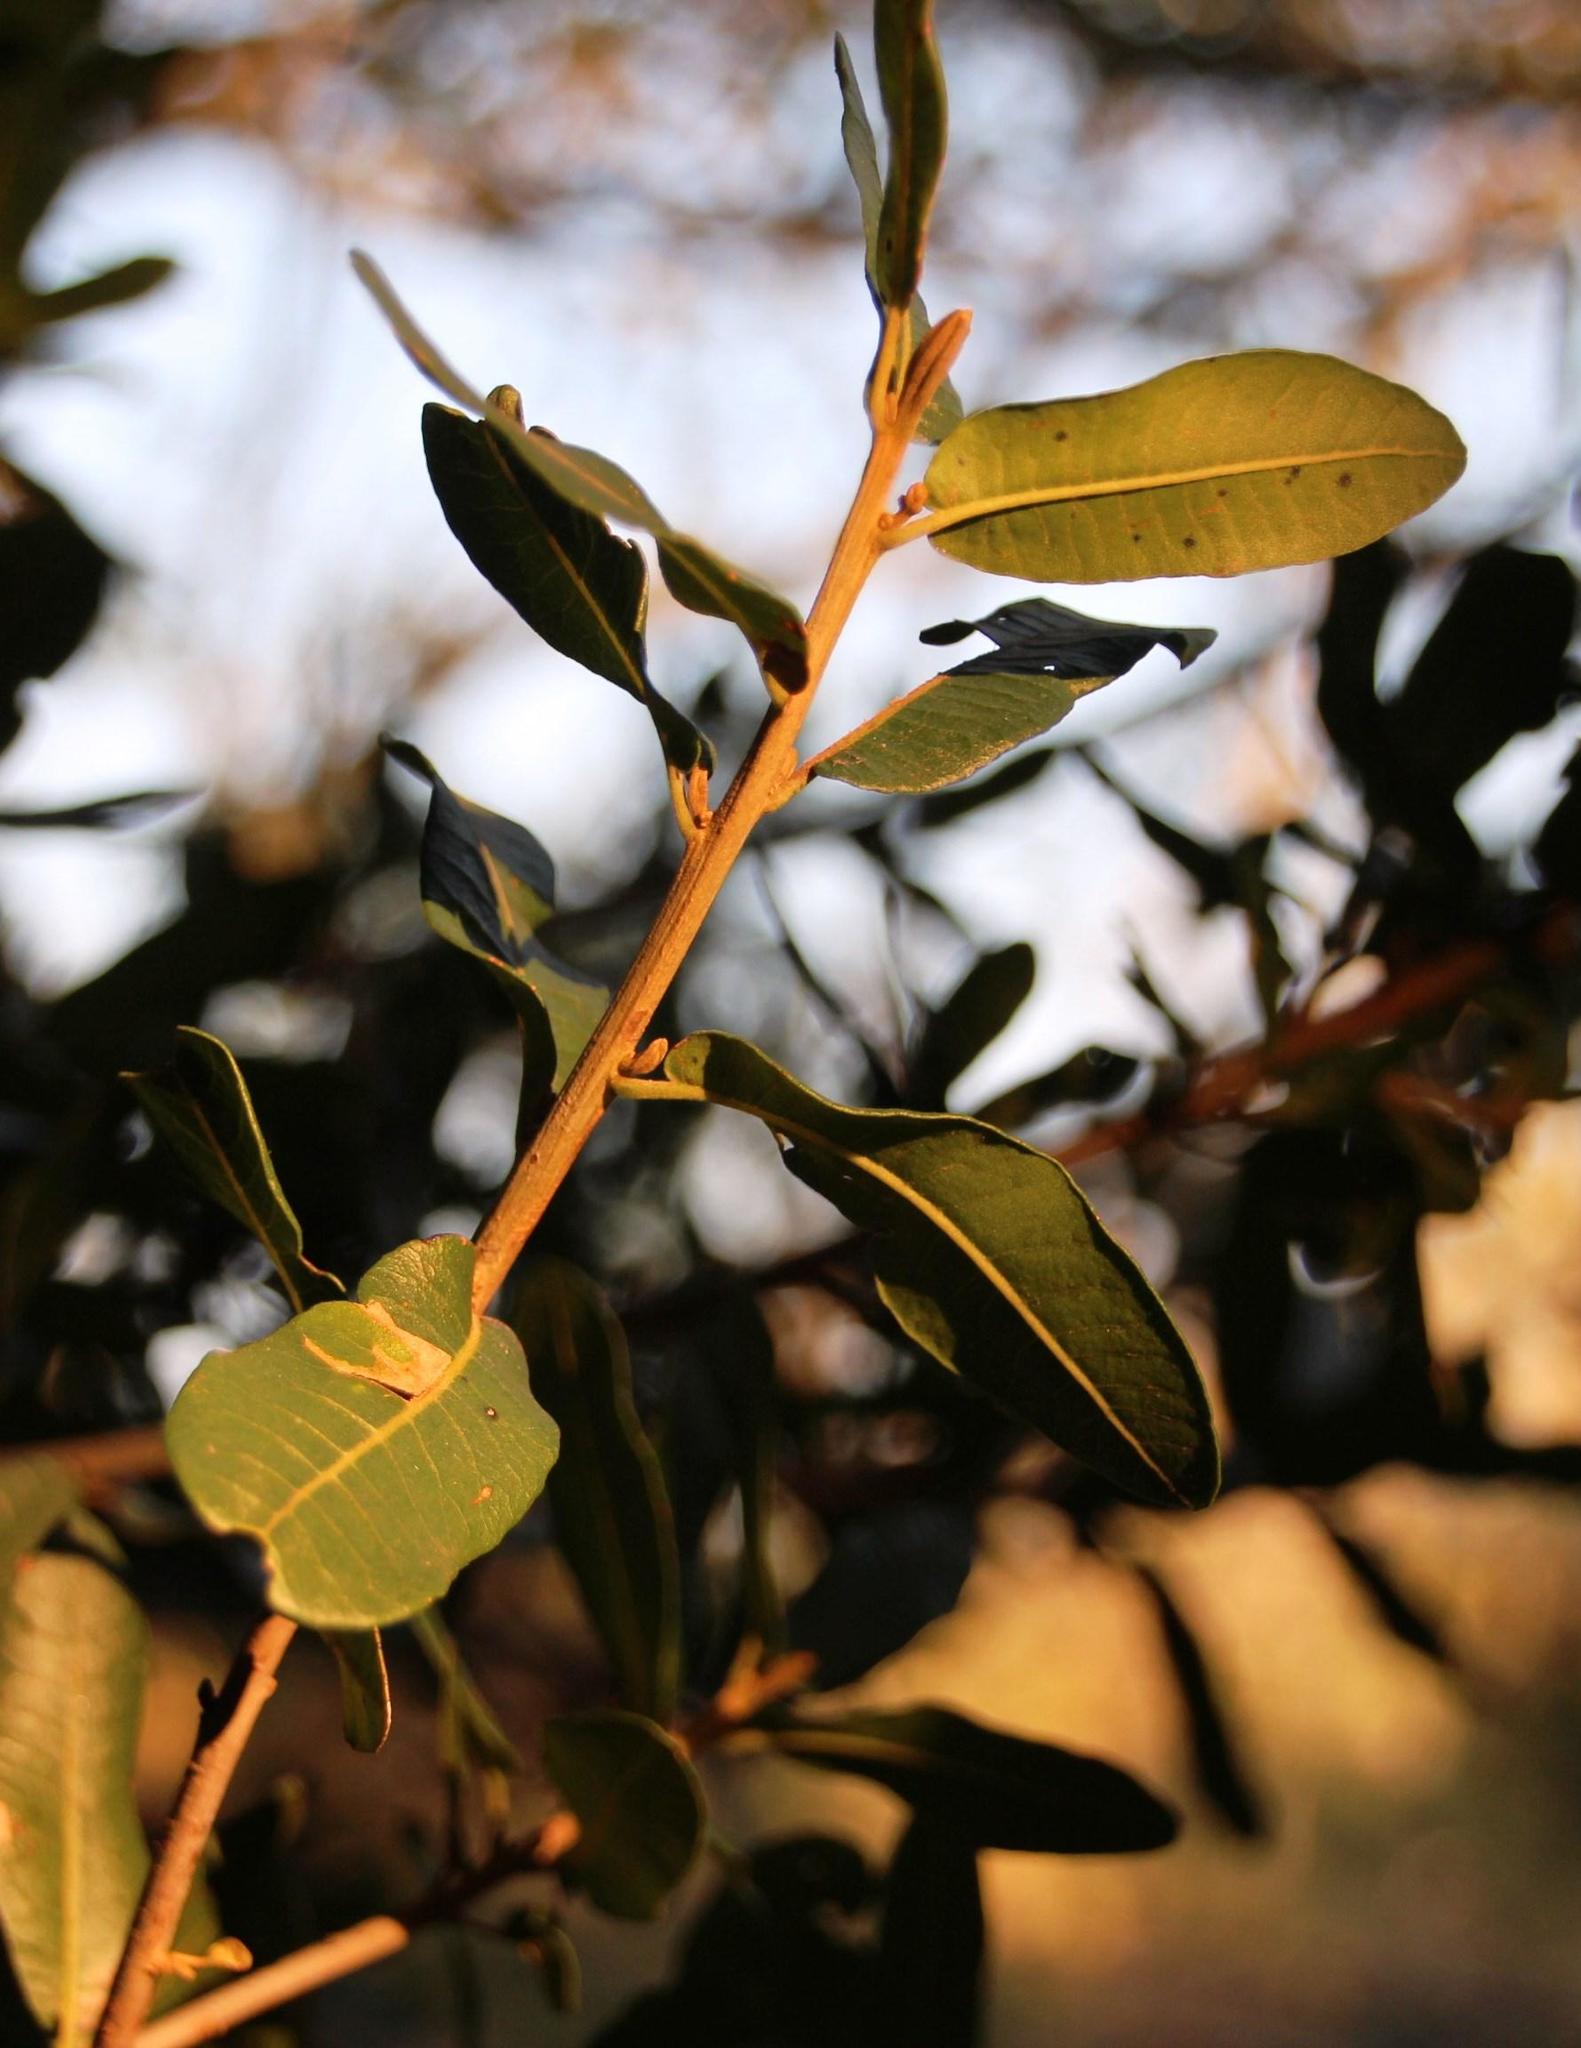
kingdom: Plantae
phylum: Tracheophyta
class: Magnoliopsida
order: Sapindales
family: Sapindaceae
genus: Pappea
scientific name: Pappea capensis
